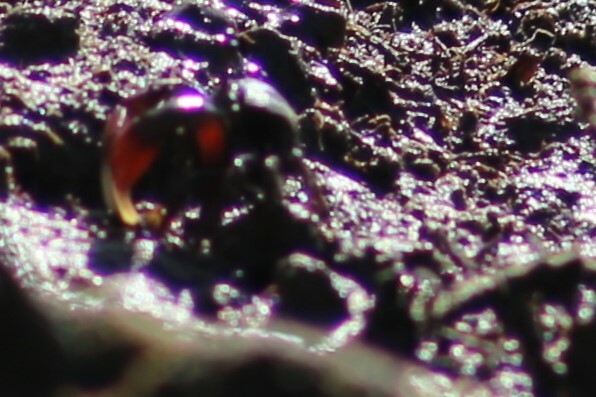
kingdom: Animalia
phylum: Arthropoda
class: Malacostraca
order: Decapoda
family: Heloeciidae
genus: Heloecius
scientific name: Heloecius cordiformis
